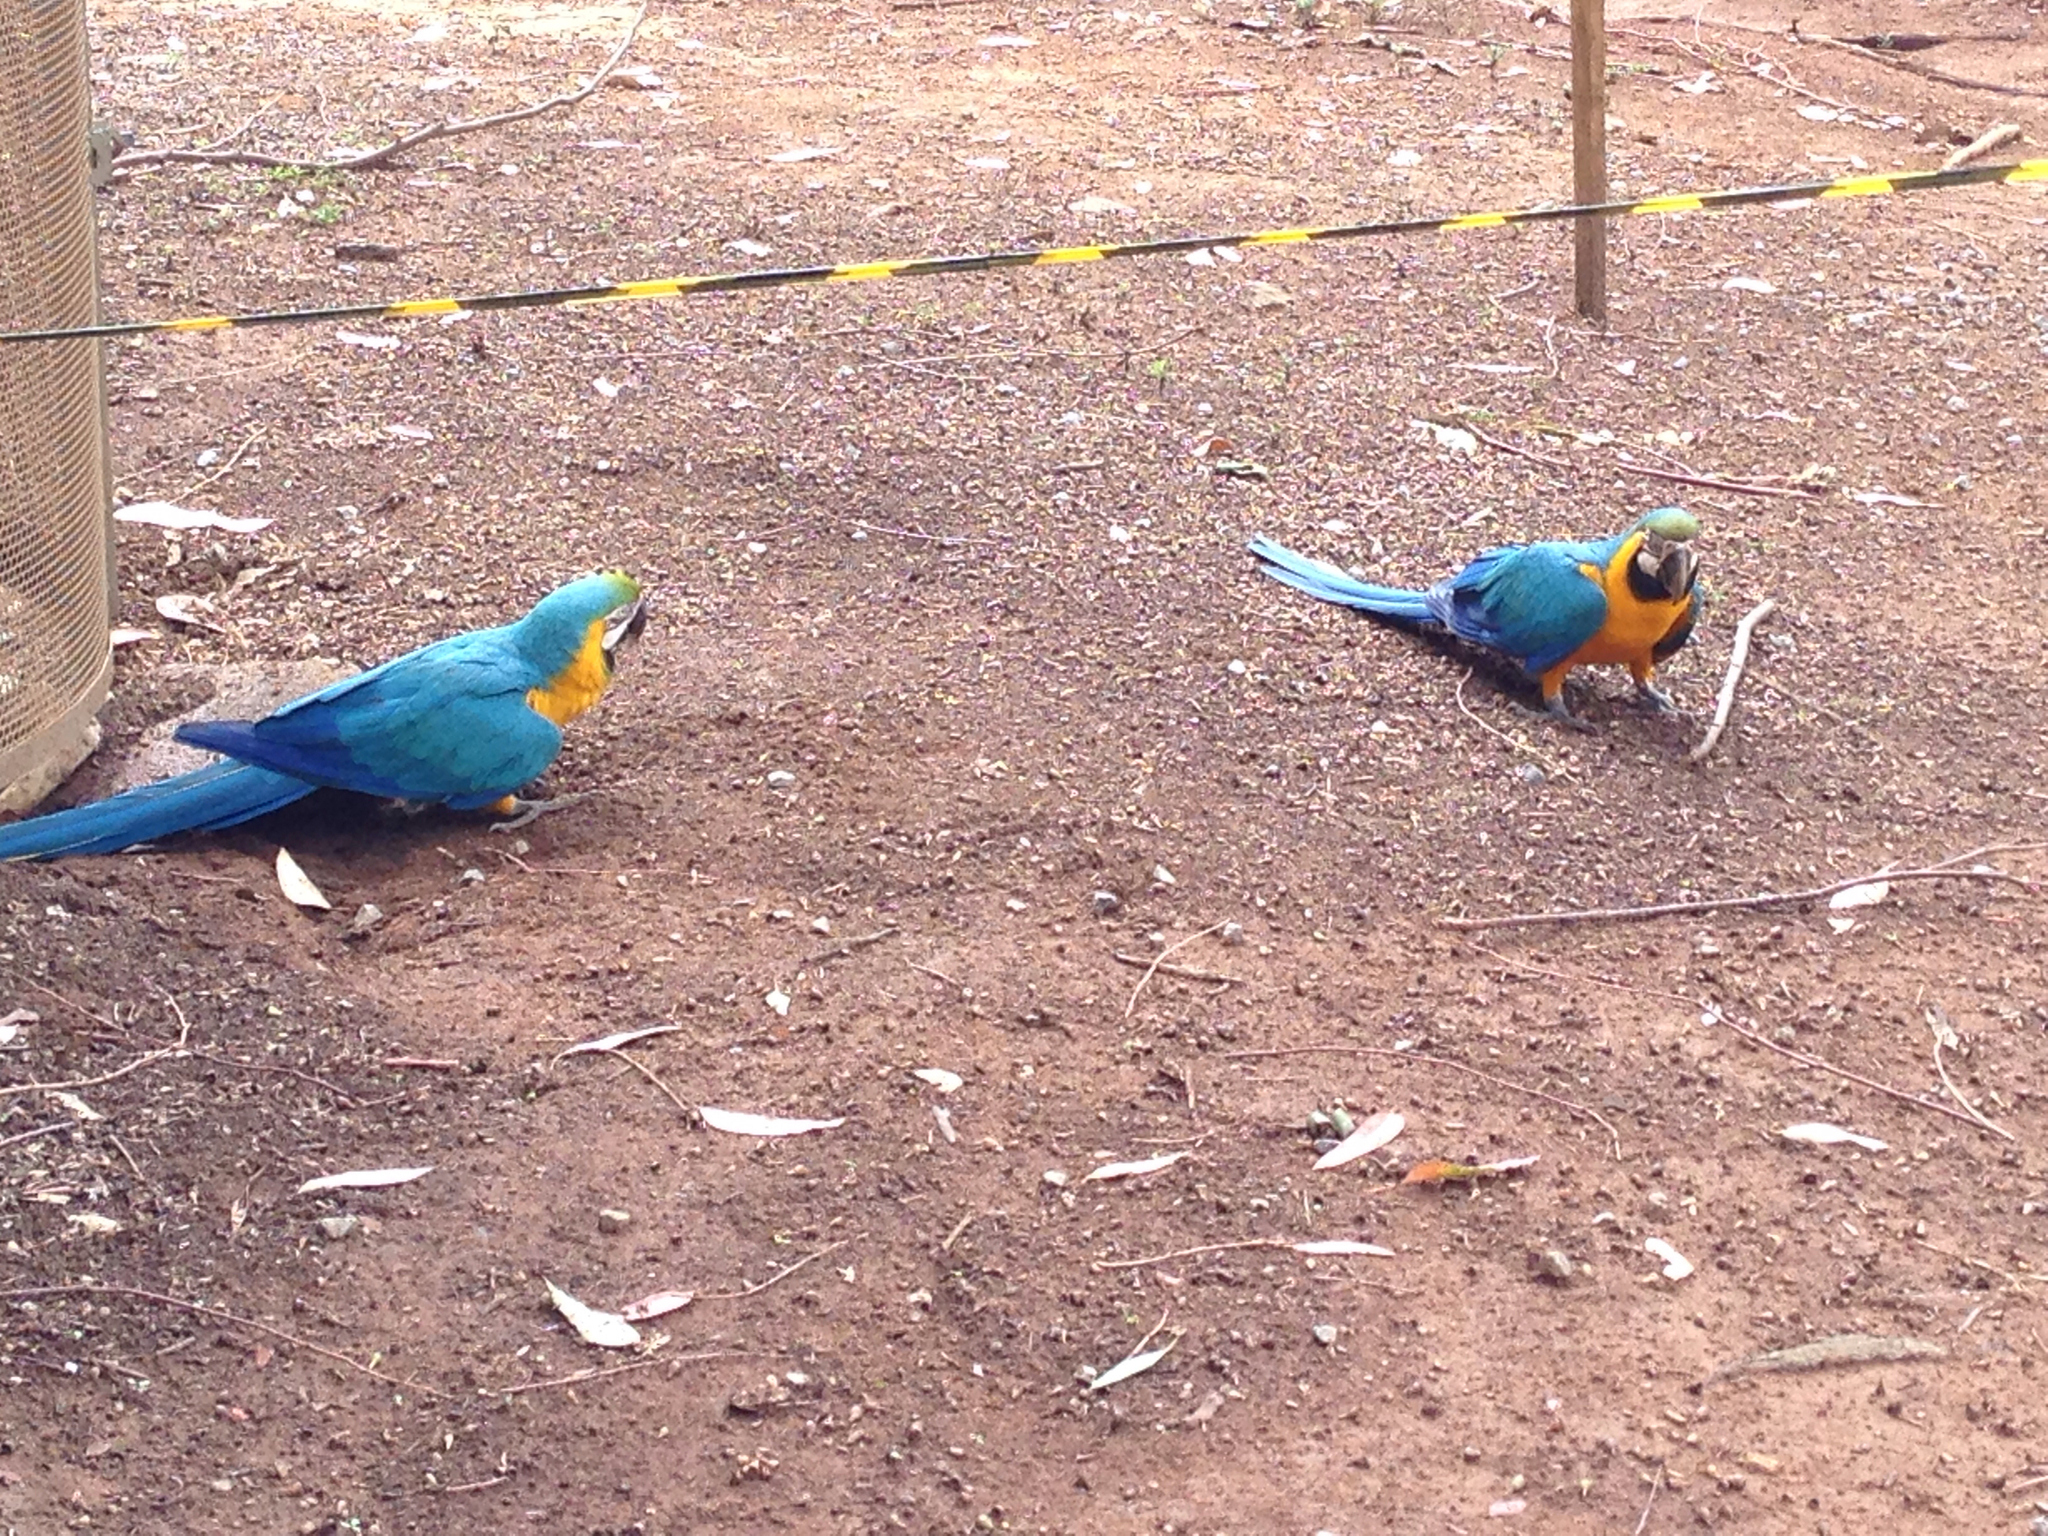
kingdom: Animalia
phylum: Chordata
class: Aves
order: Psittaciformes
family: Psittacidae
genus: Ara
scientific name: Ara ararauna
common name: Blue-and-yellow macaw
